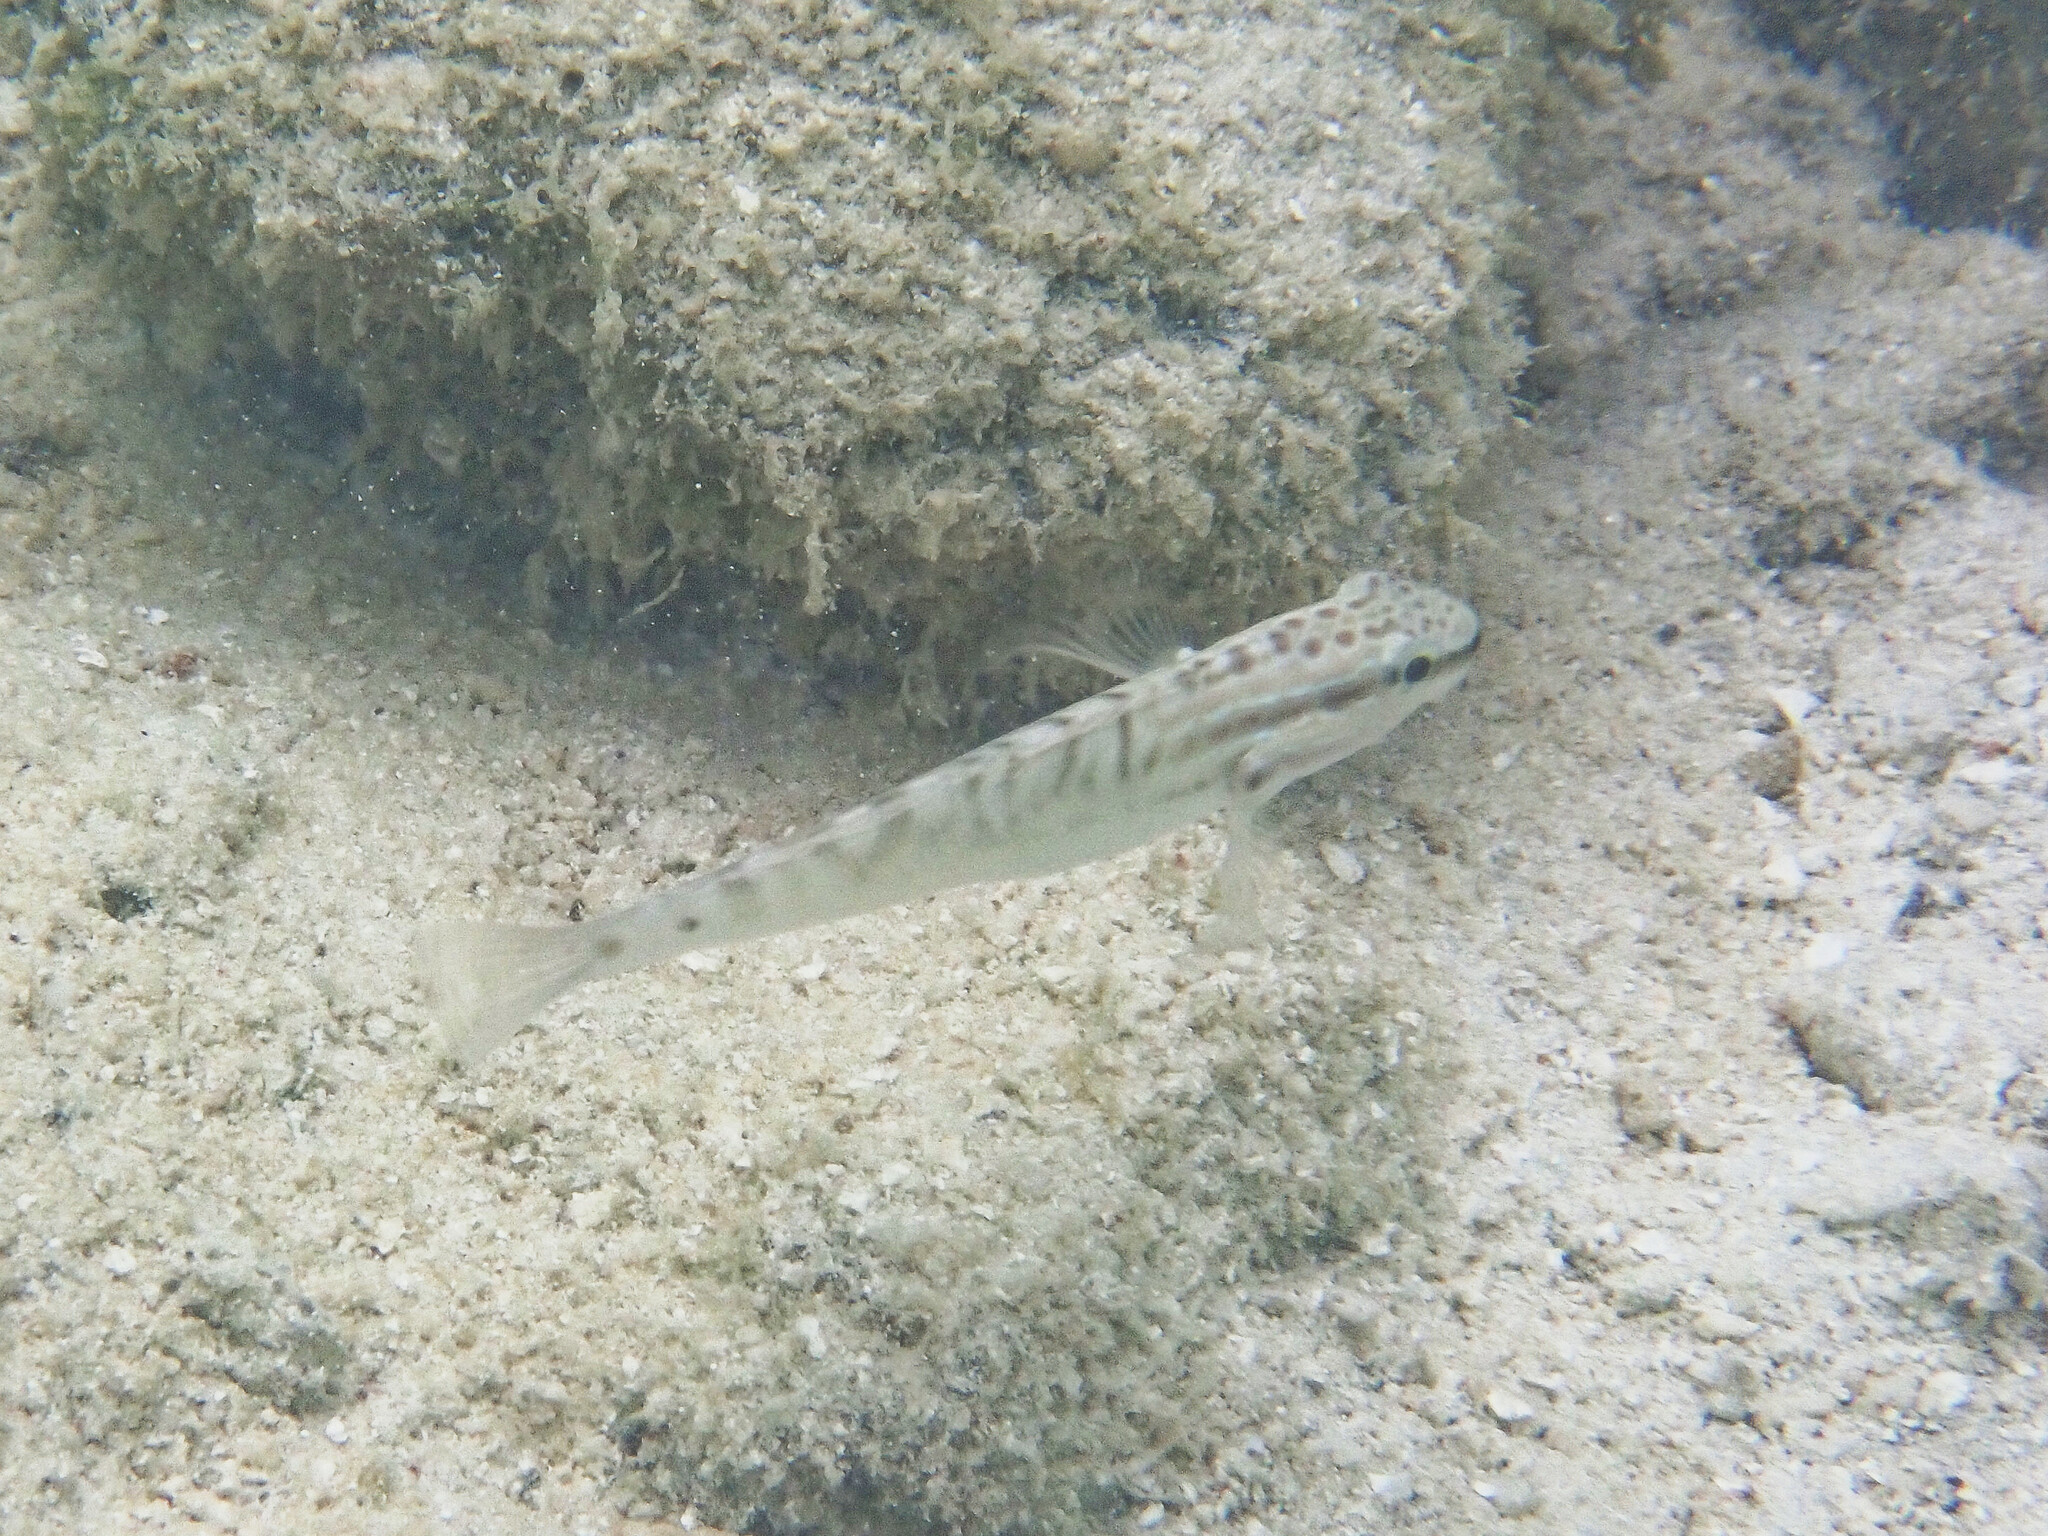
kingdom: Animalia
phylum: Chordata
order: Perciformes
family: Gobiidae
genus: Amblygobius
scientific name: Amblygobius stethophthalmus
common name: Freckled goby
